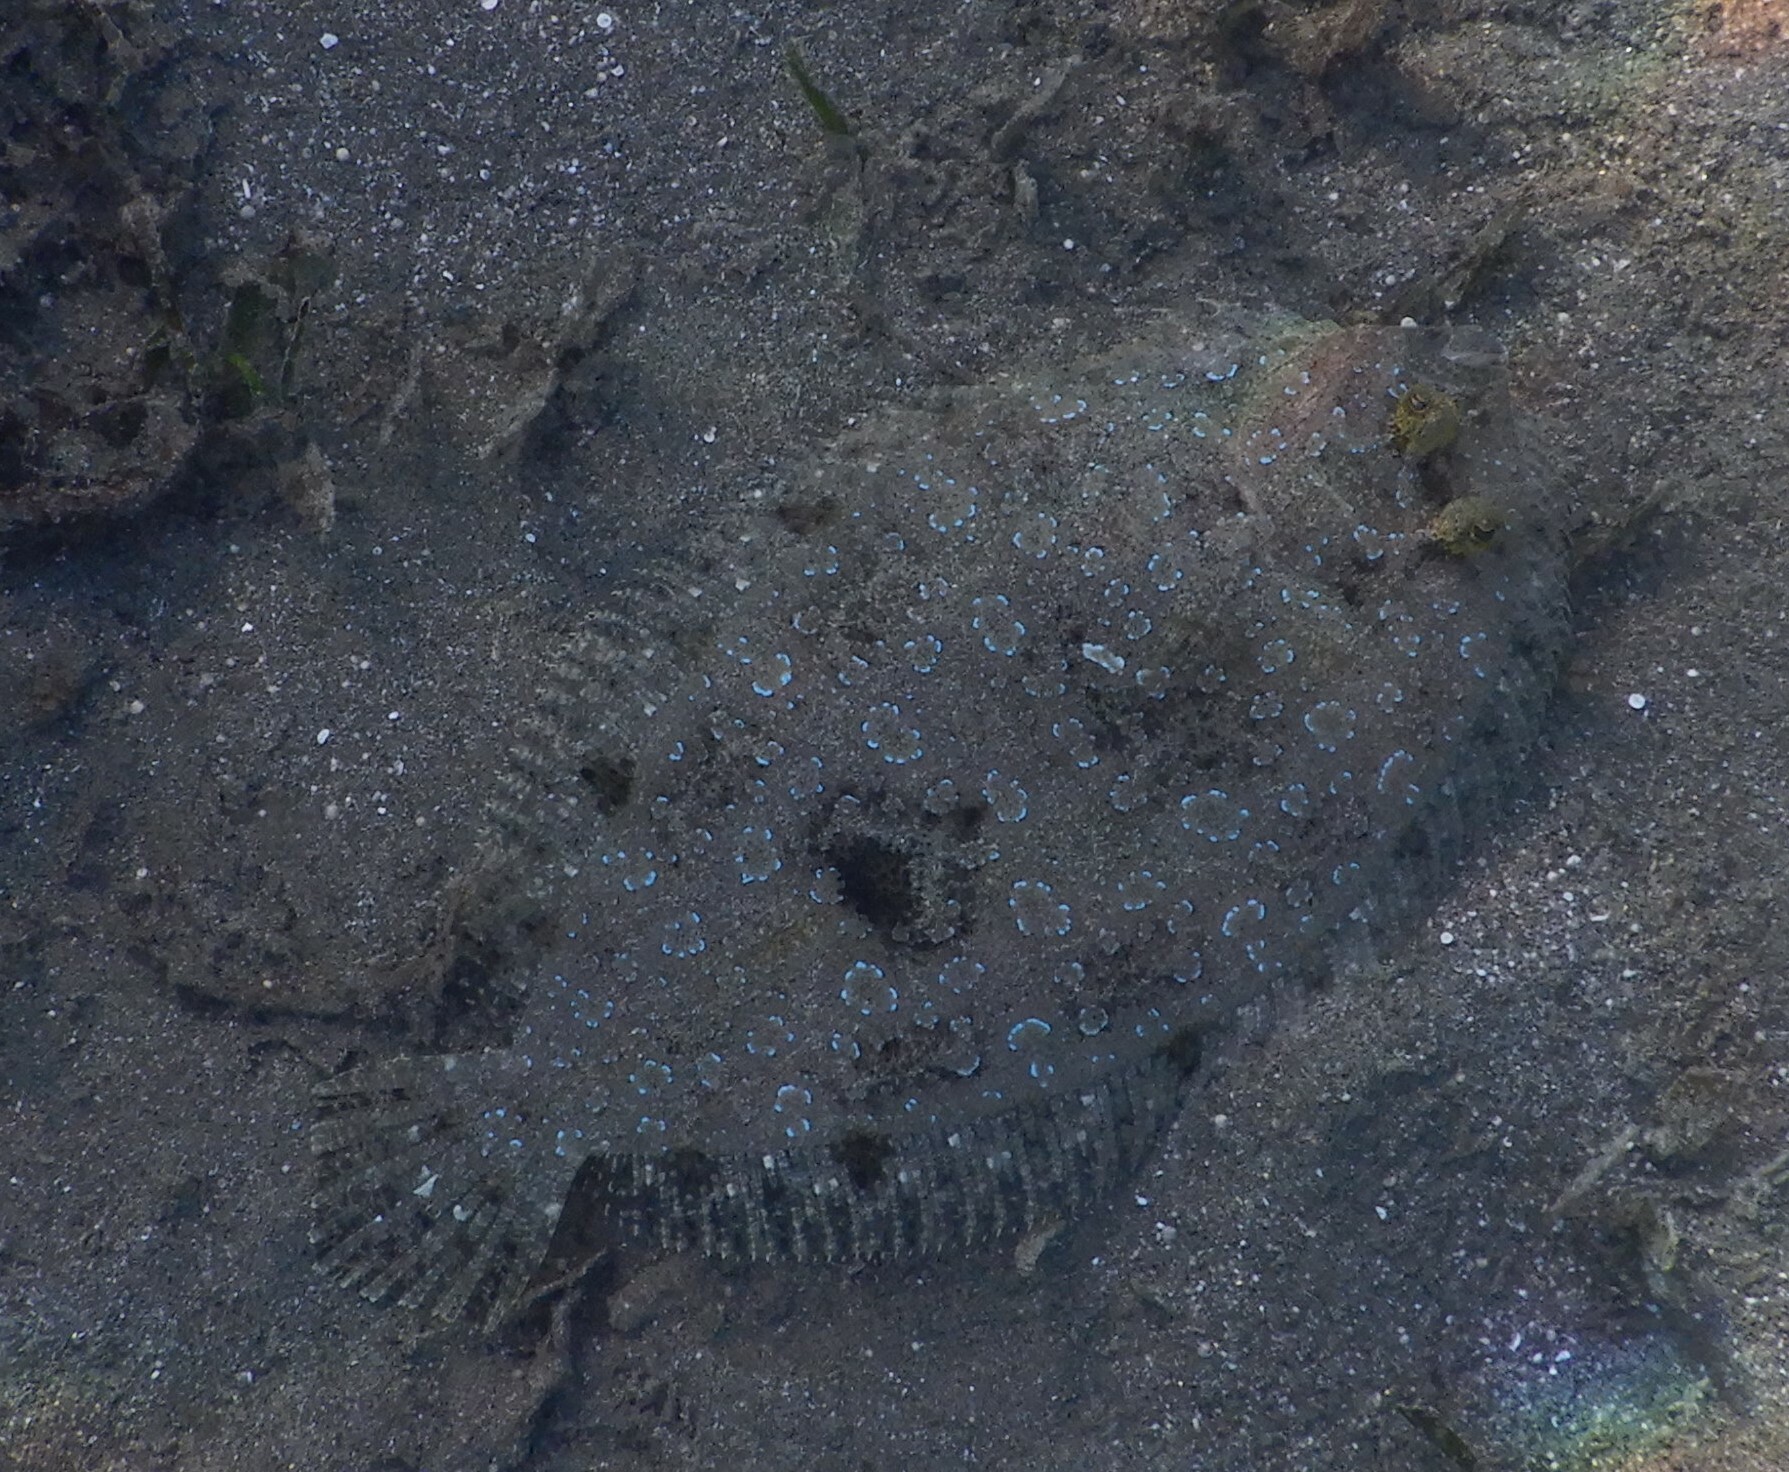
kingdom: Animalia
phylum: Chordata
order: Pleuronectiformes
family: Bothidae
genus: Bothus
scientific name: Bothus pantherinus
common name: Leopard flounder
